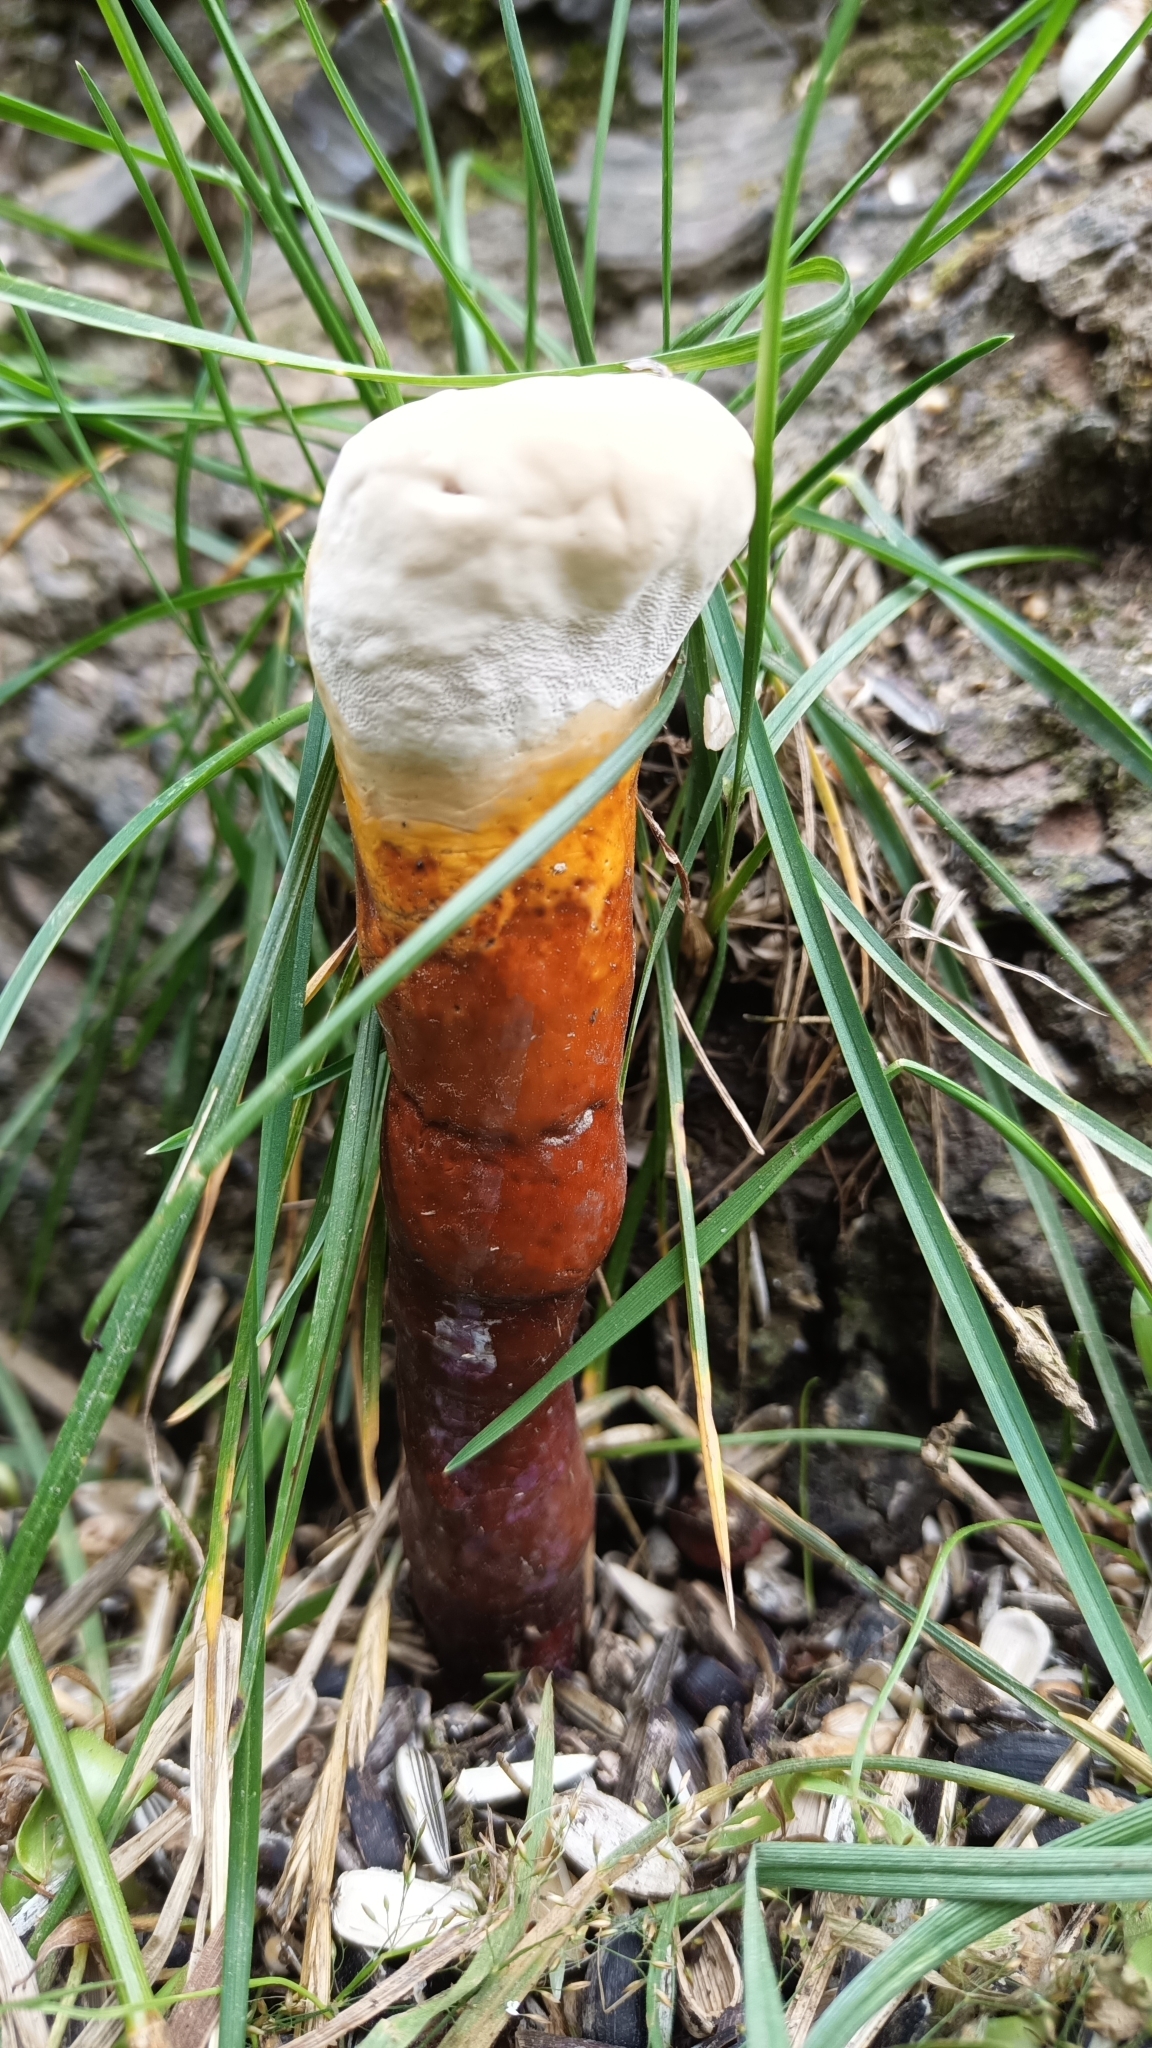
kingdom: Fungi
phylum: Basidiomycota
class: Agaricomycetes
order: Polyporales
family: Polyporaceae
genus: Ganoderma
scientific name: Ganoderma lucidum
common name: Lacquered bracket
